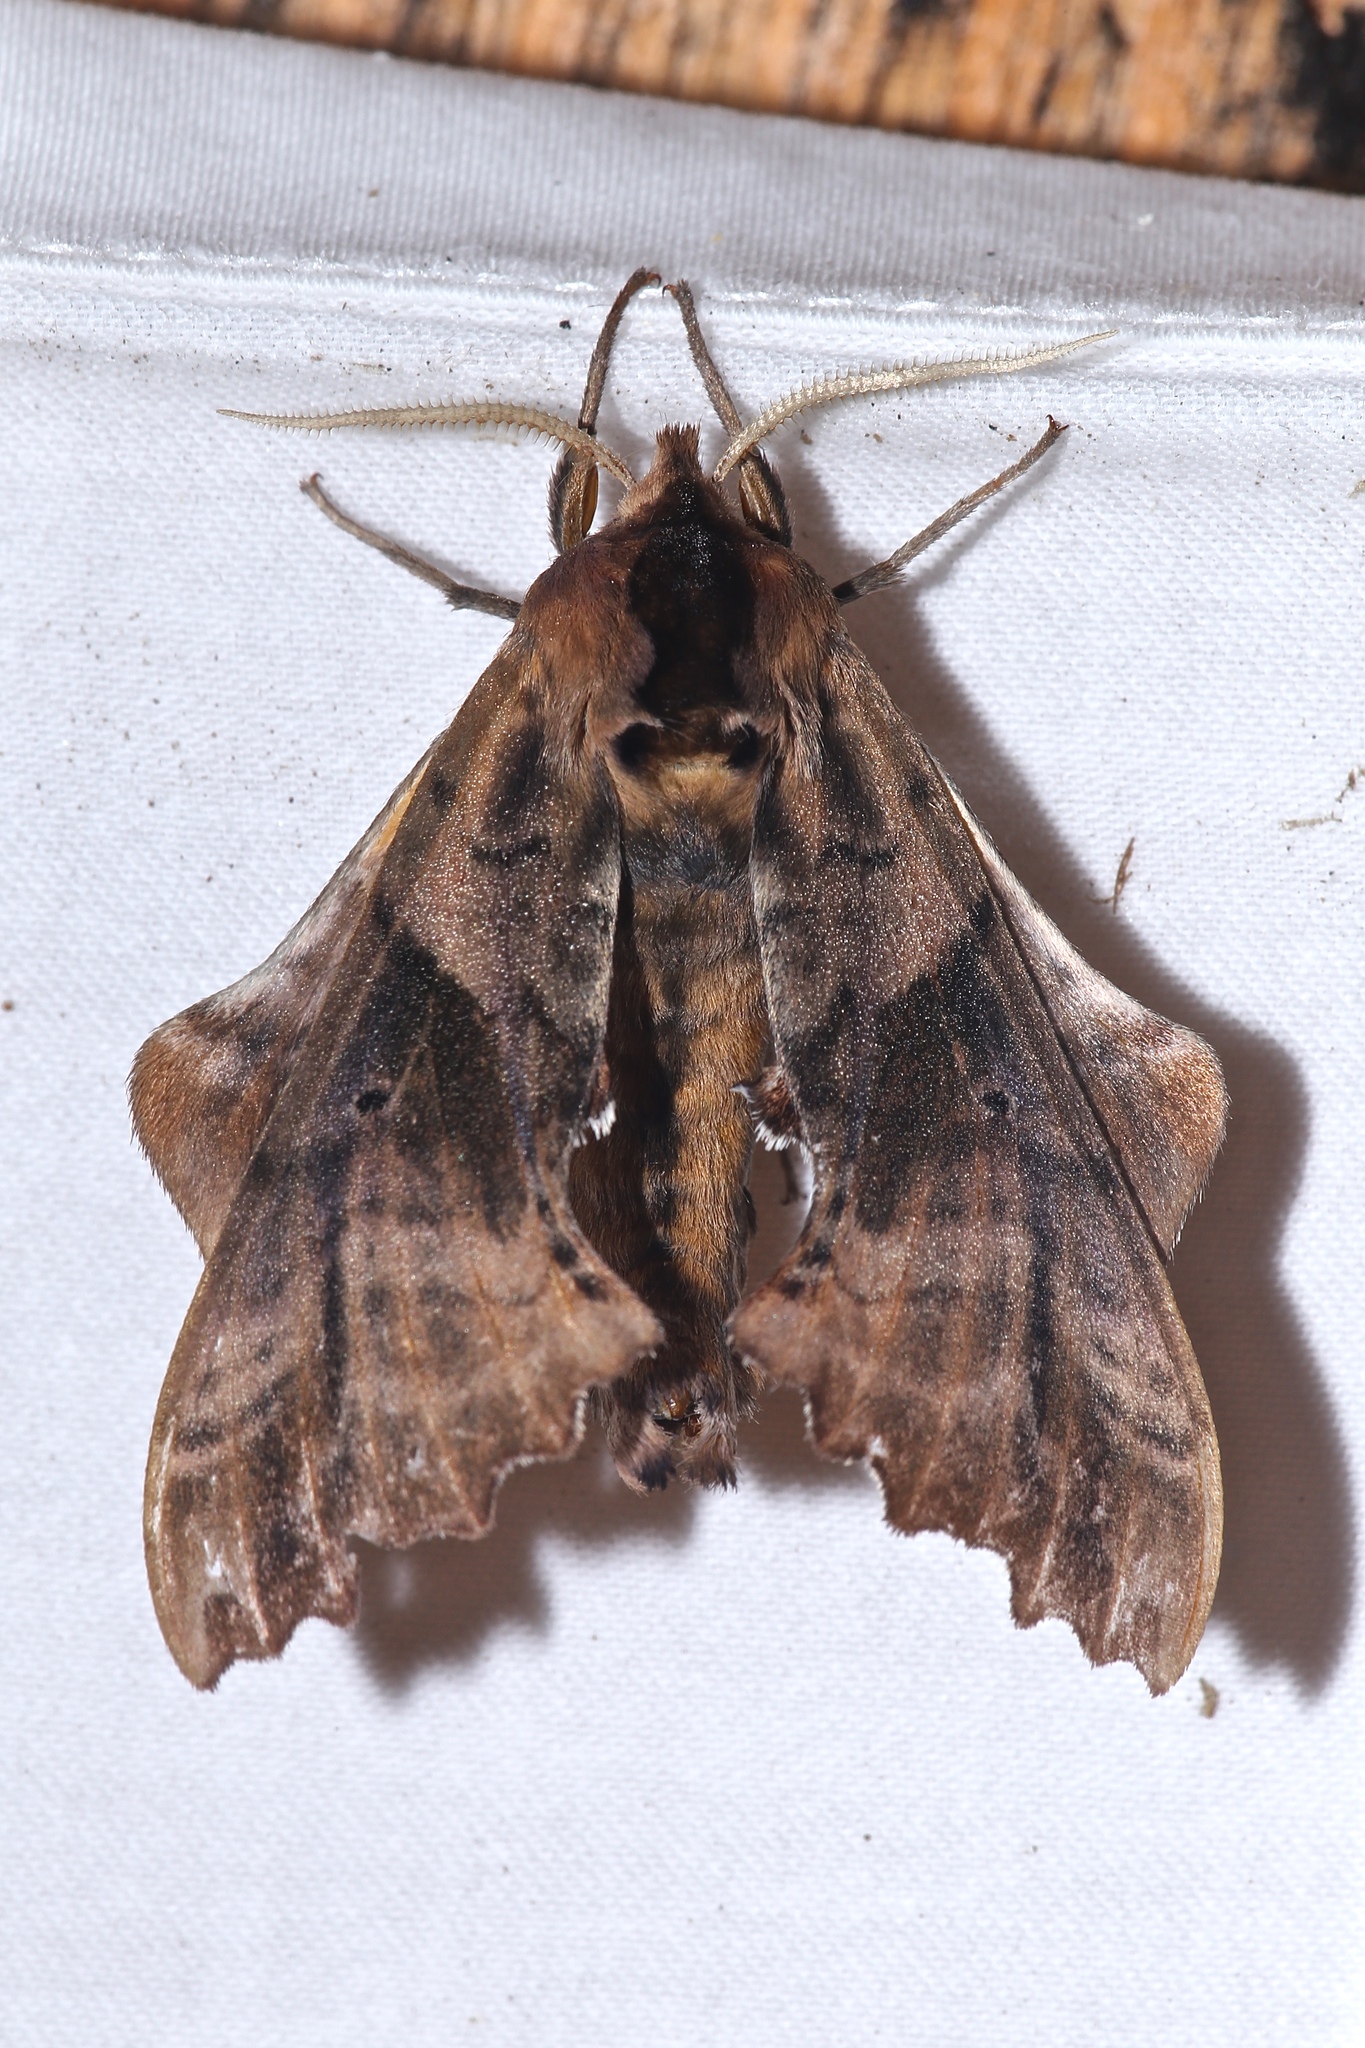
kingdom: Animalia
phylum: Arthropoda
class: Insecta
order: Lepidoptera
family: Sphingidae
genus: Paonias
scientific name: Paonias excaecata
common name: Blind-eyed sphinx
